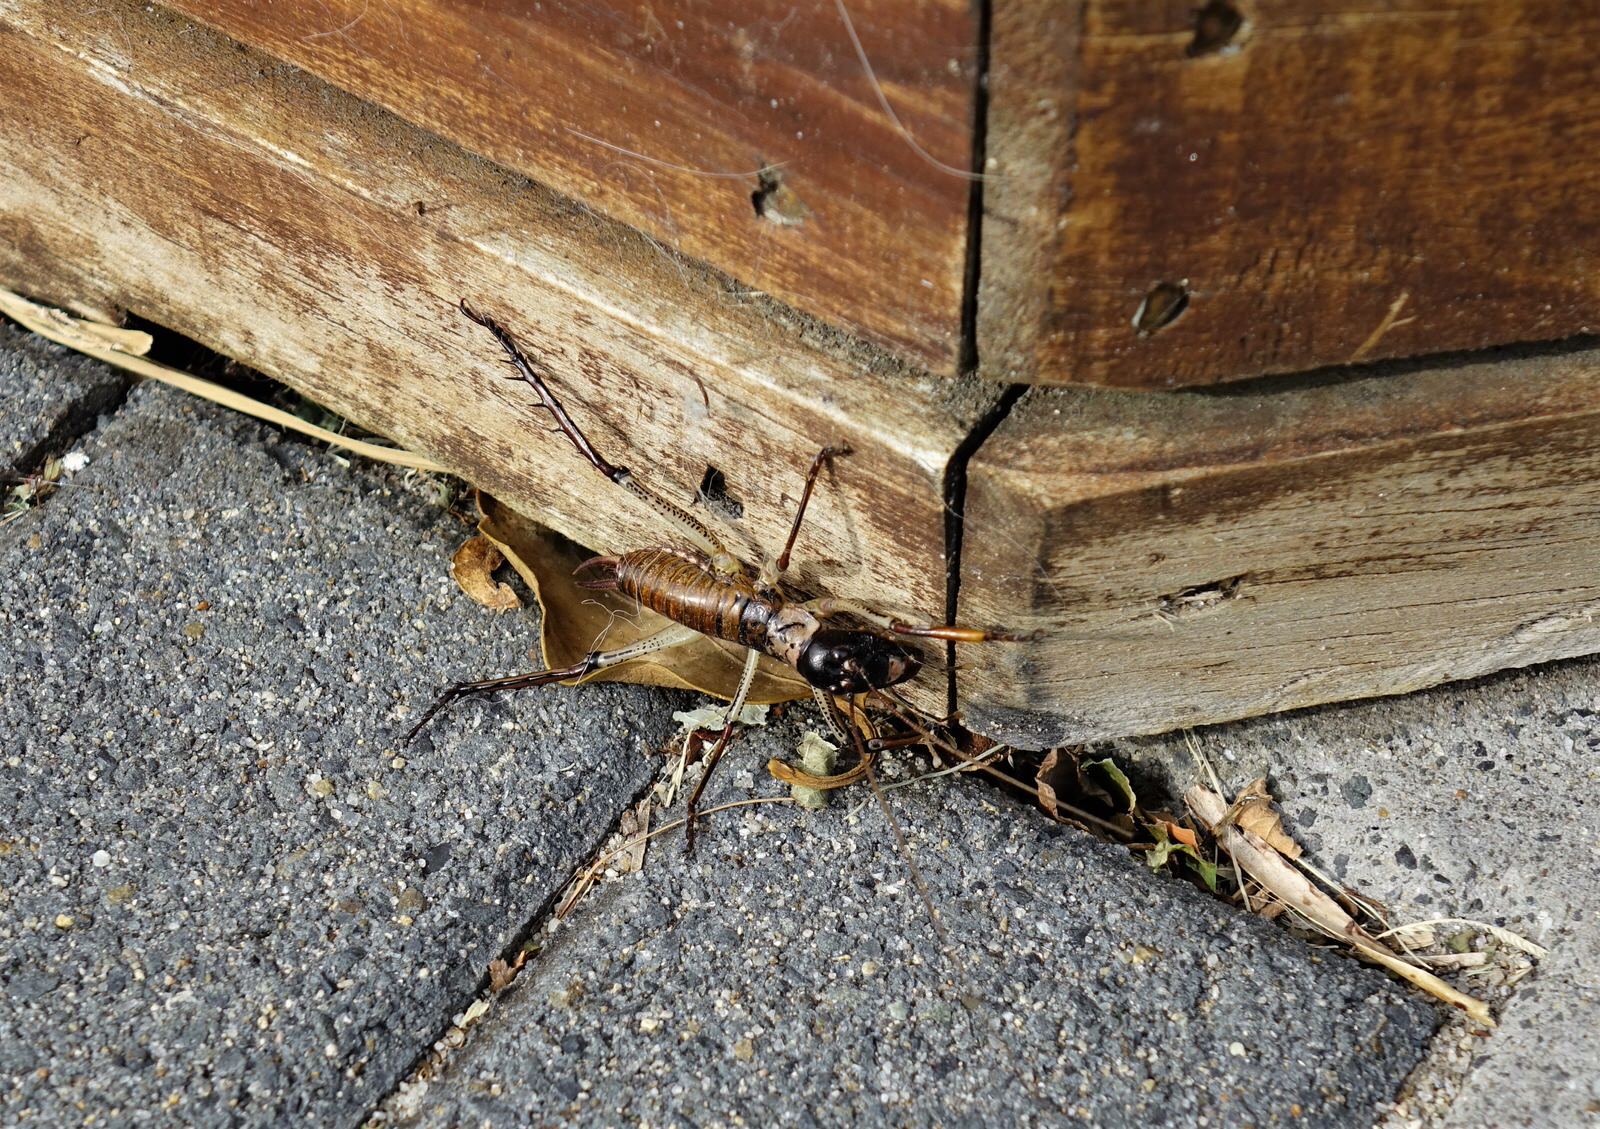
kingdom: Animalia
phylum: Arthropoda
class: Insecta
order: Orthoptera
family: Anostostomatidae
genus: Hemideina
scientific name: Hemideina thoracica
